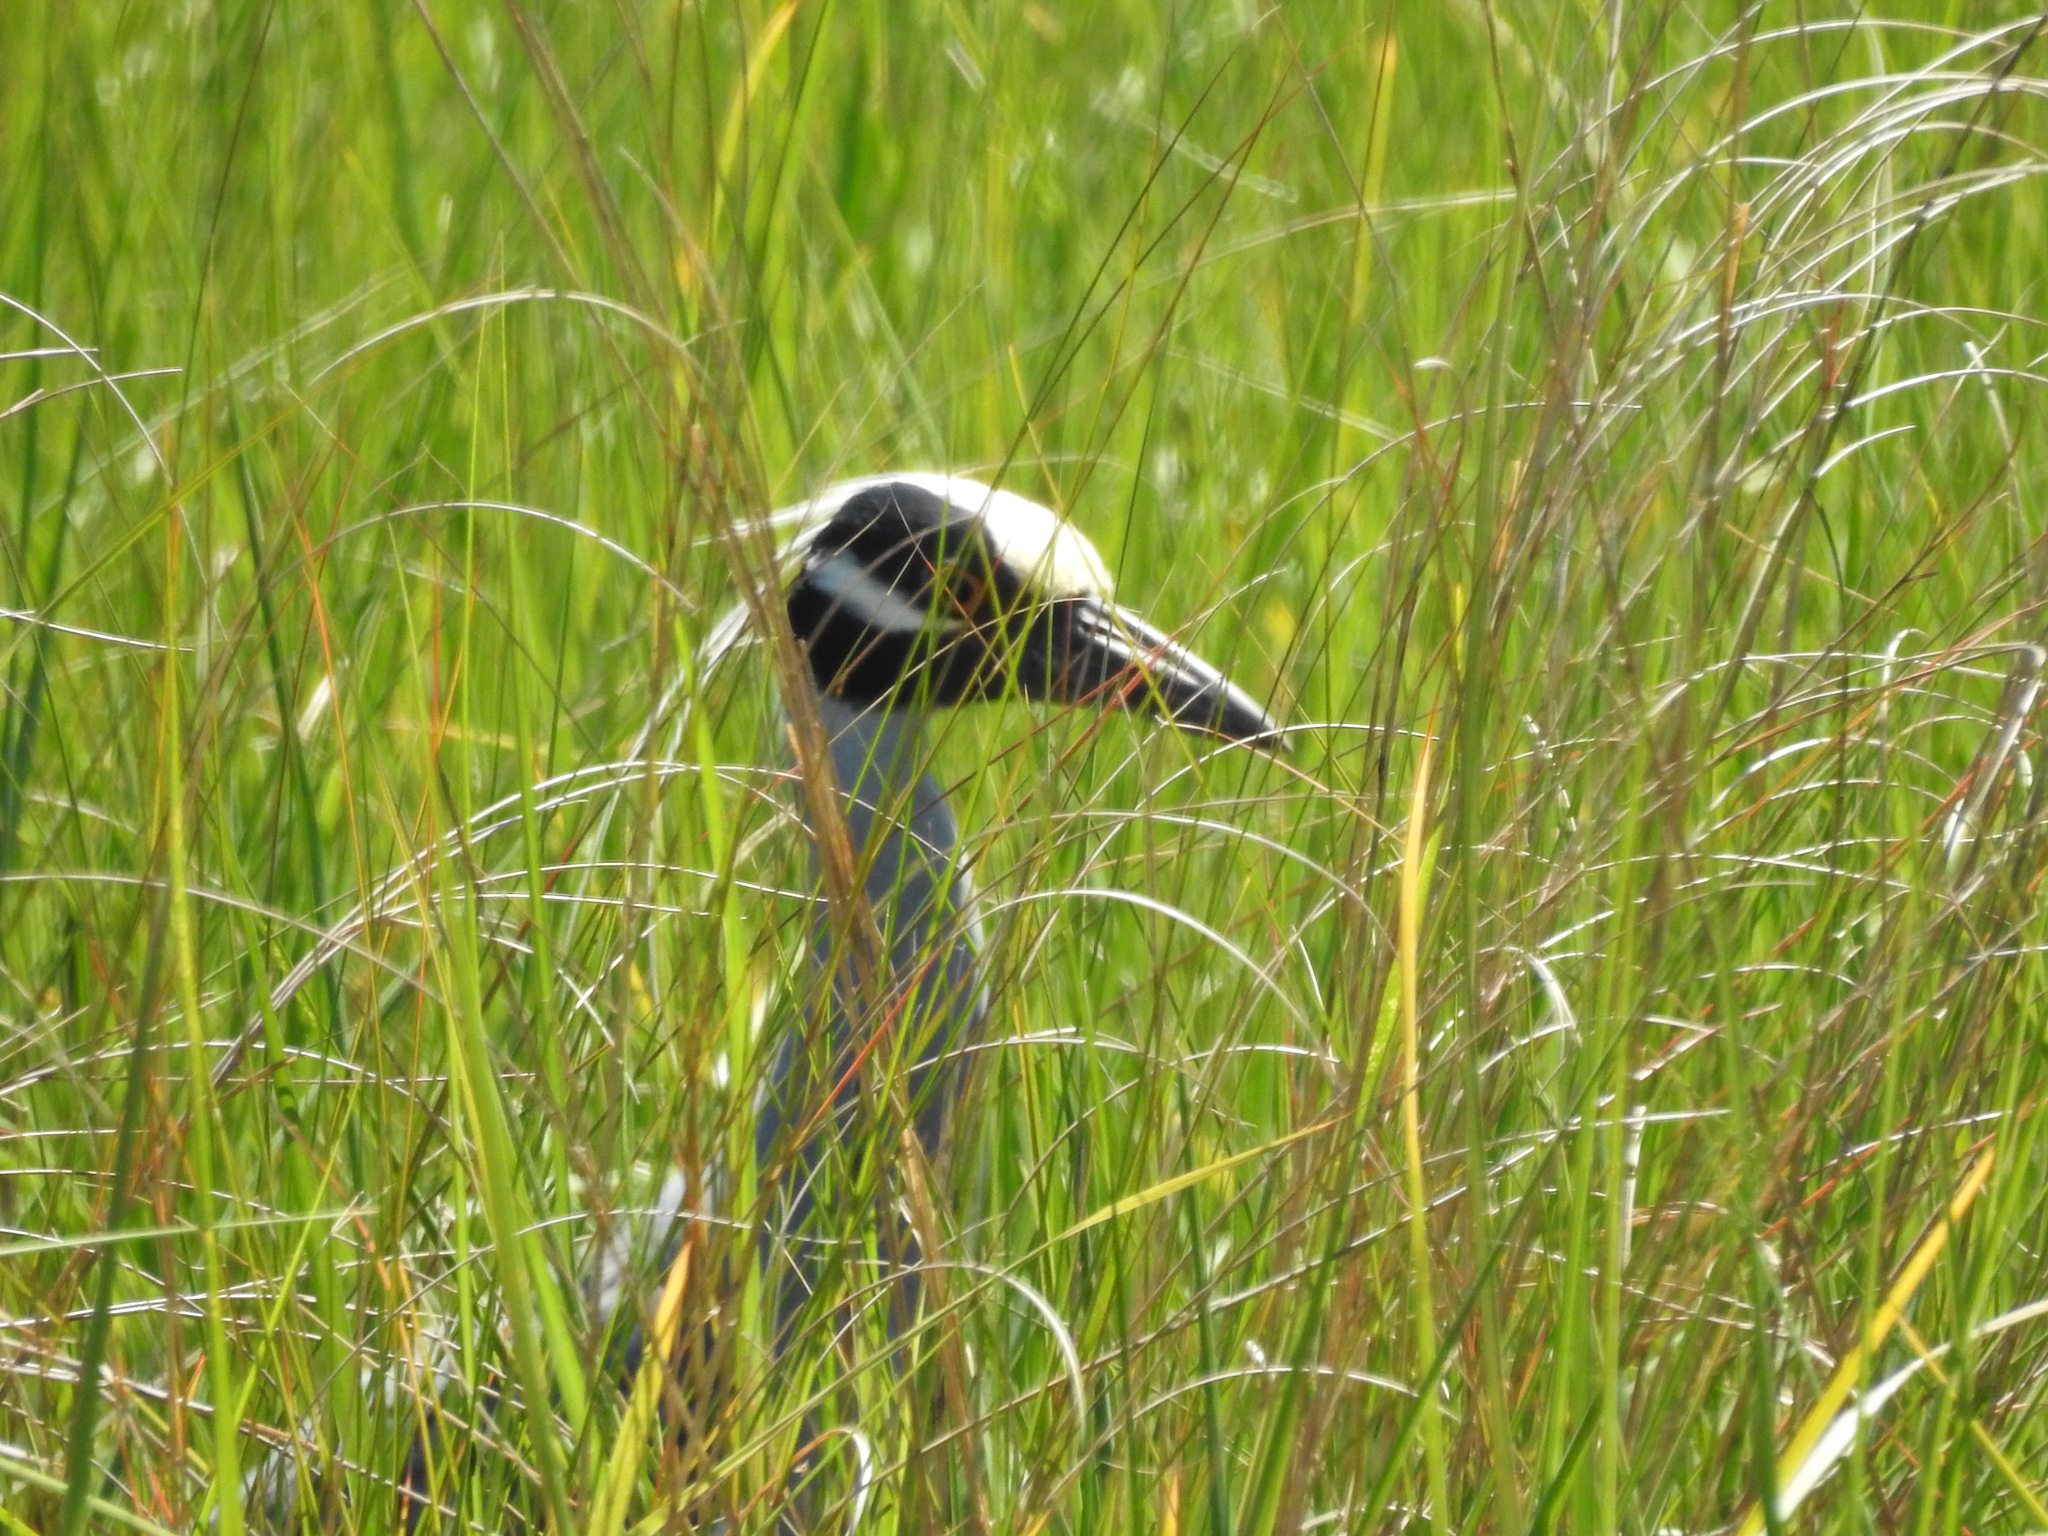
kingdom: Animalia
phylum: Chordata
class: Aves
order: Pelecaniformes
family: Ardeidae
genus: Nyctanassa
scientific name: Nyctanassa violacea
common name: Yellow-crowned night heron
